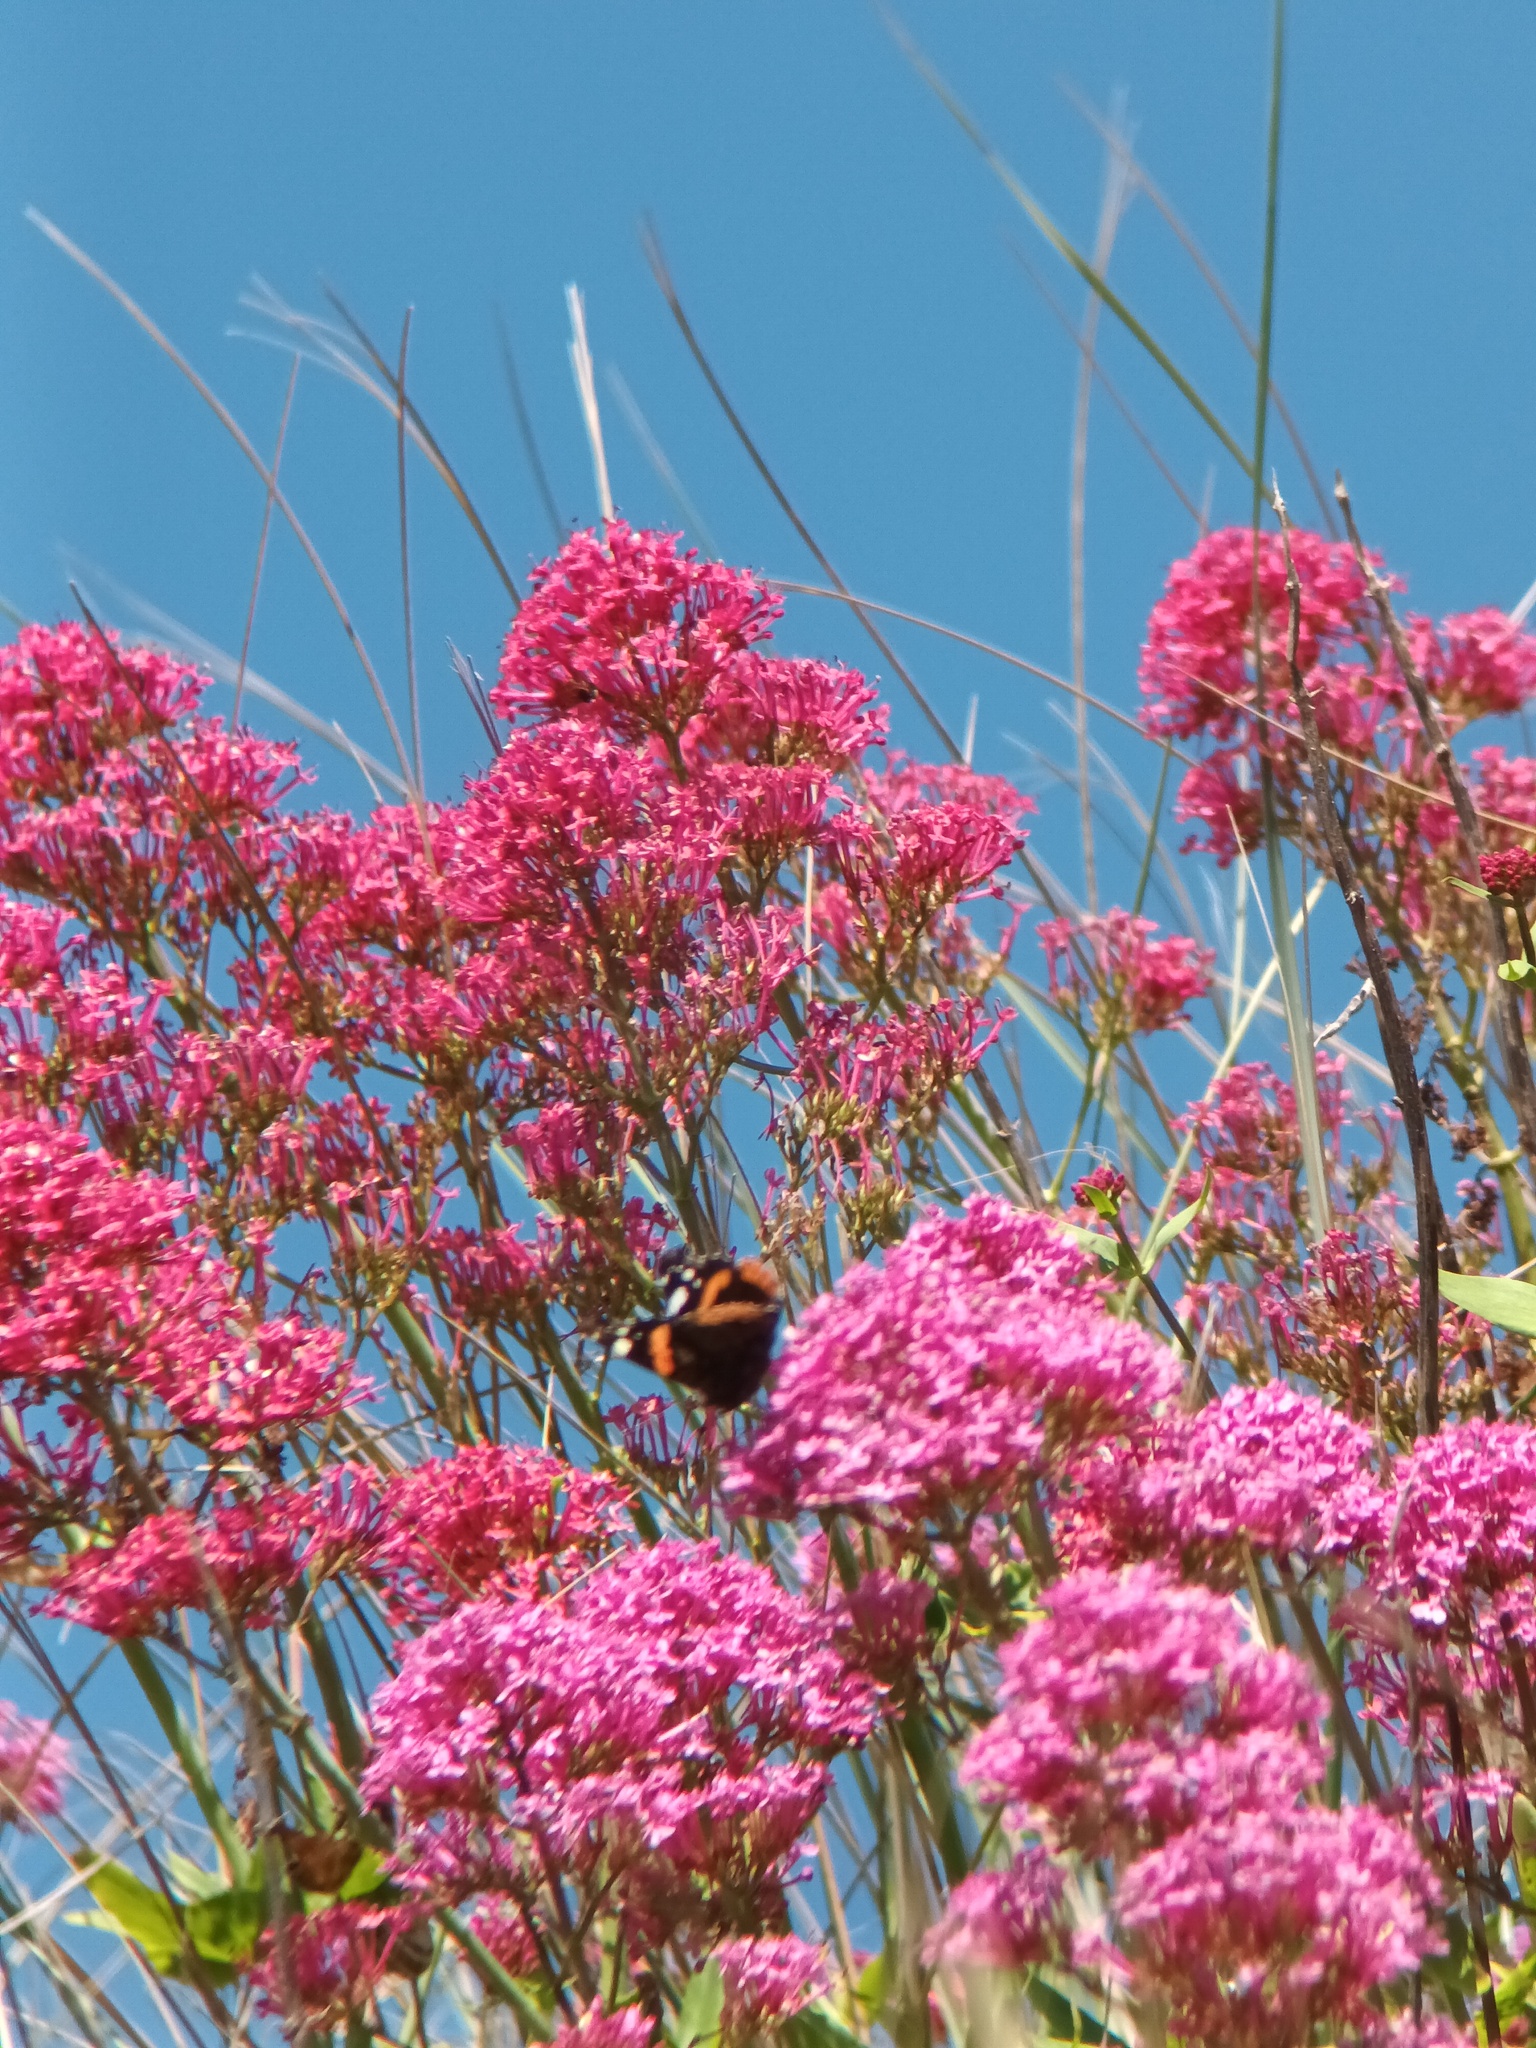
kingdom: Animalia
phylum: Arthropoda
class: Insecta
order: Lepidoptera
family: Nymphalidae
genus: Vanessa
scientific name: Vanessa atalanta
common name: Red admiral
